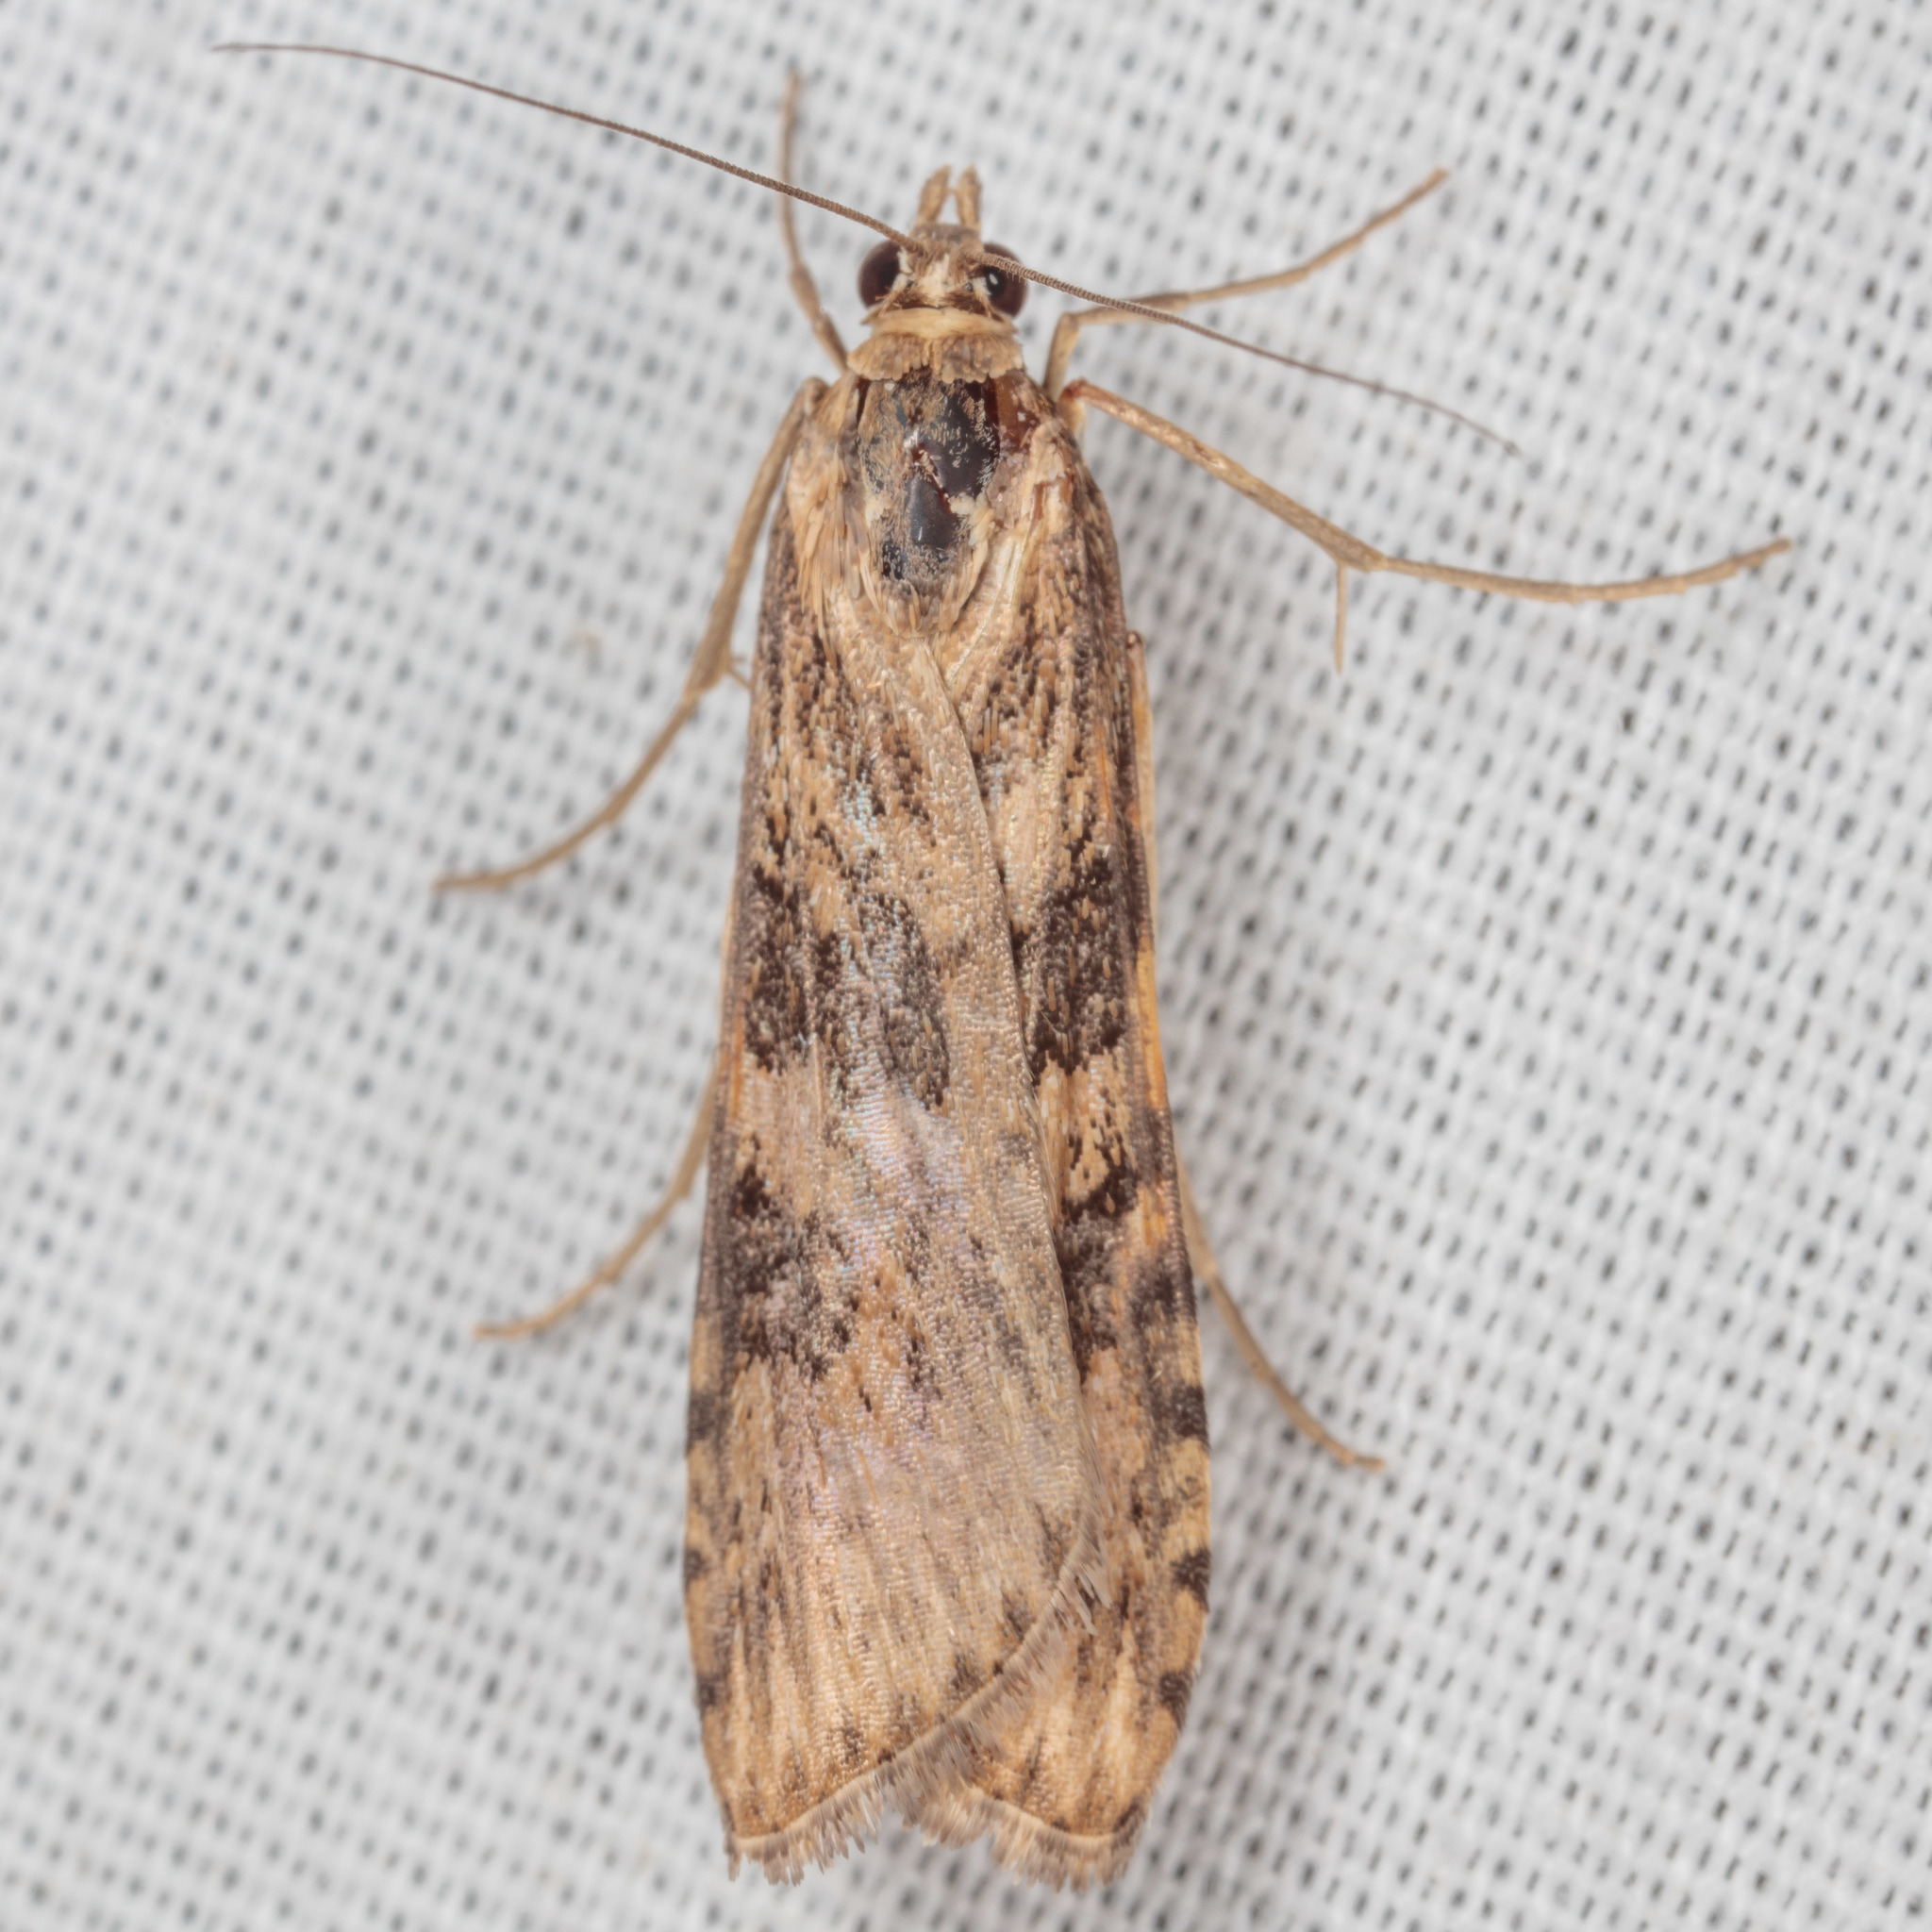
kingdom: Animalia
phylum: Arthropoda
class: Insecta
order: Lepidoptera
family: Crambidae
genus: Nomophila
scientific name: Nomophila nearctica
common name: American rush veneer
